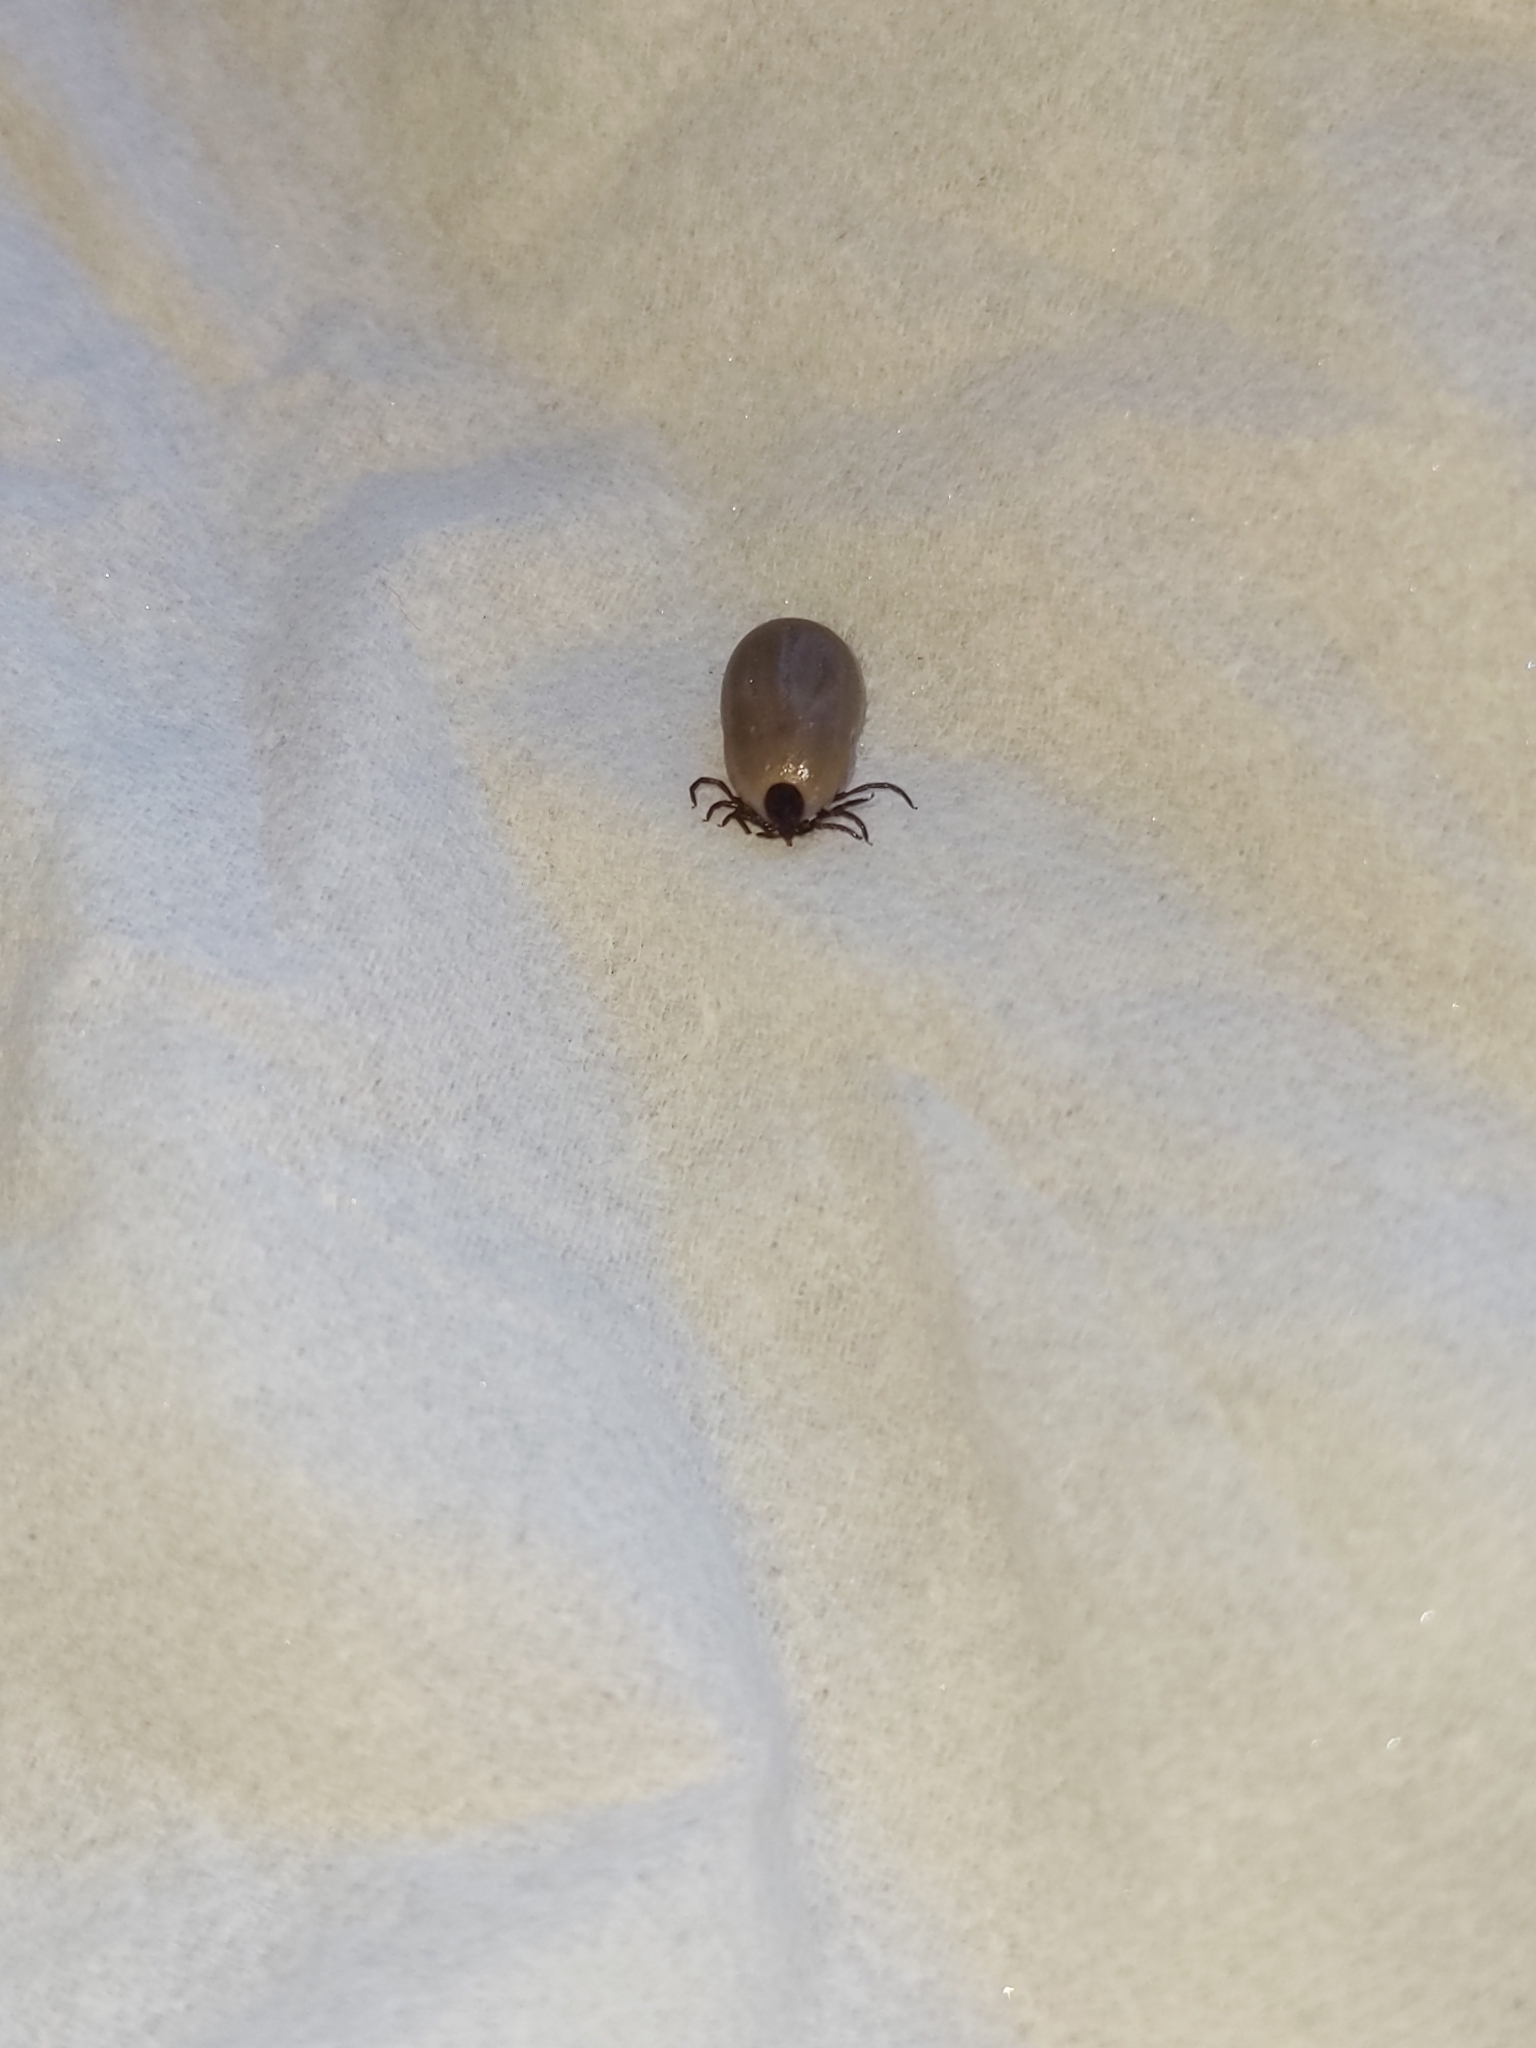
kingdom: Animalia
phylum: Arthropoda
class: Arachnida
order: Ixodida
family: Ixodidae
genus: Ixodes
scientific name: Ixodes scapularis
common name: Black legged tick
